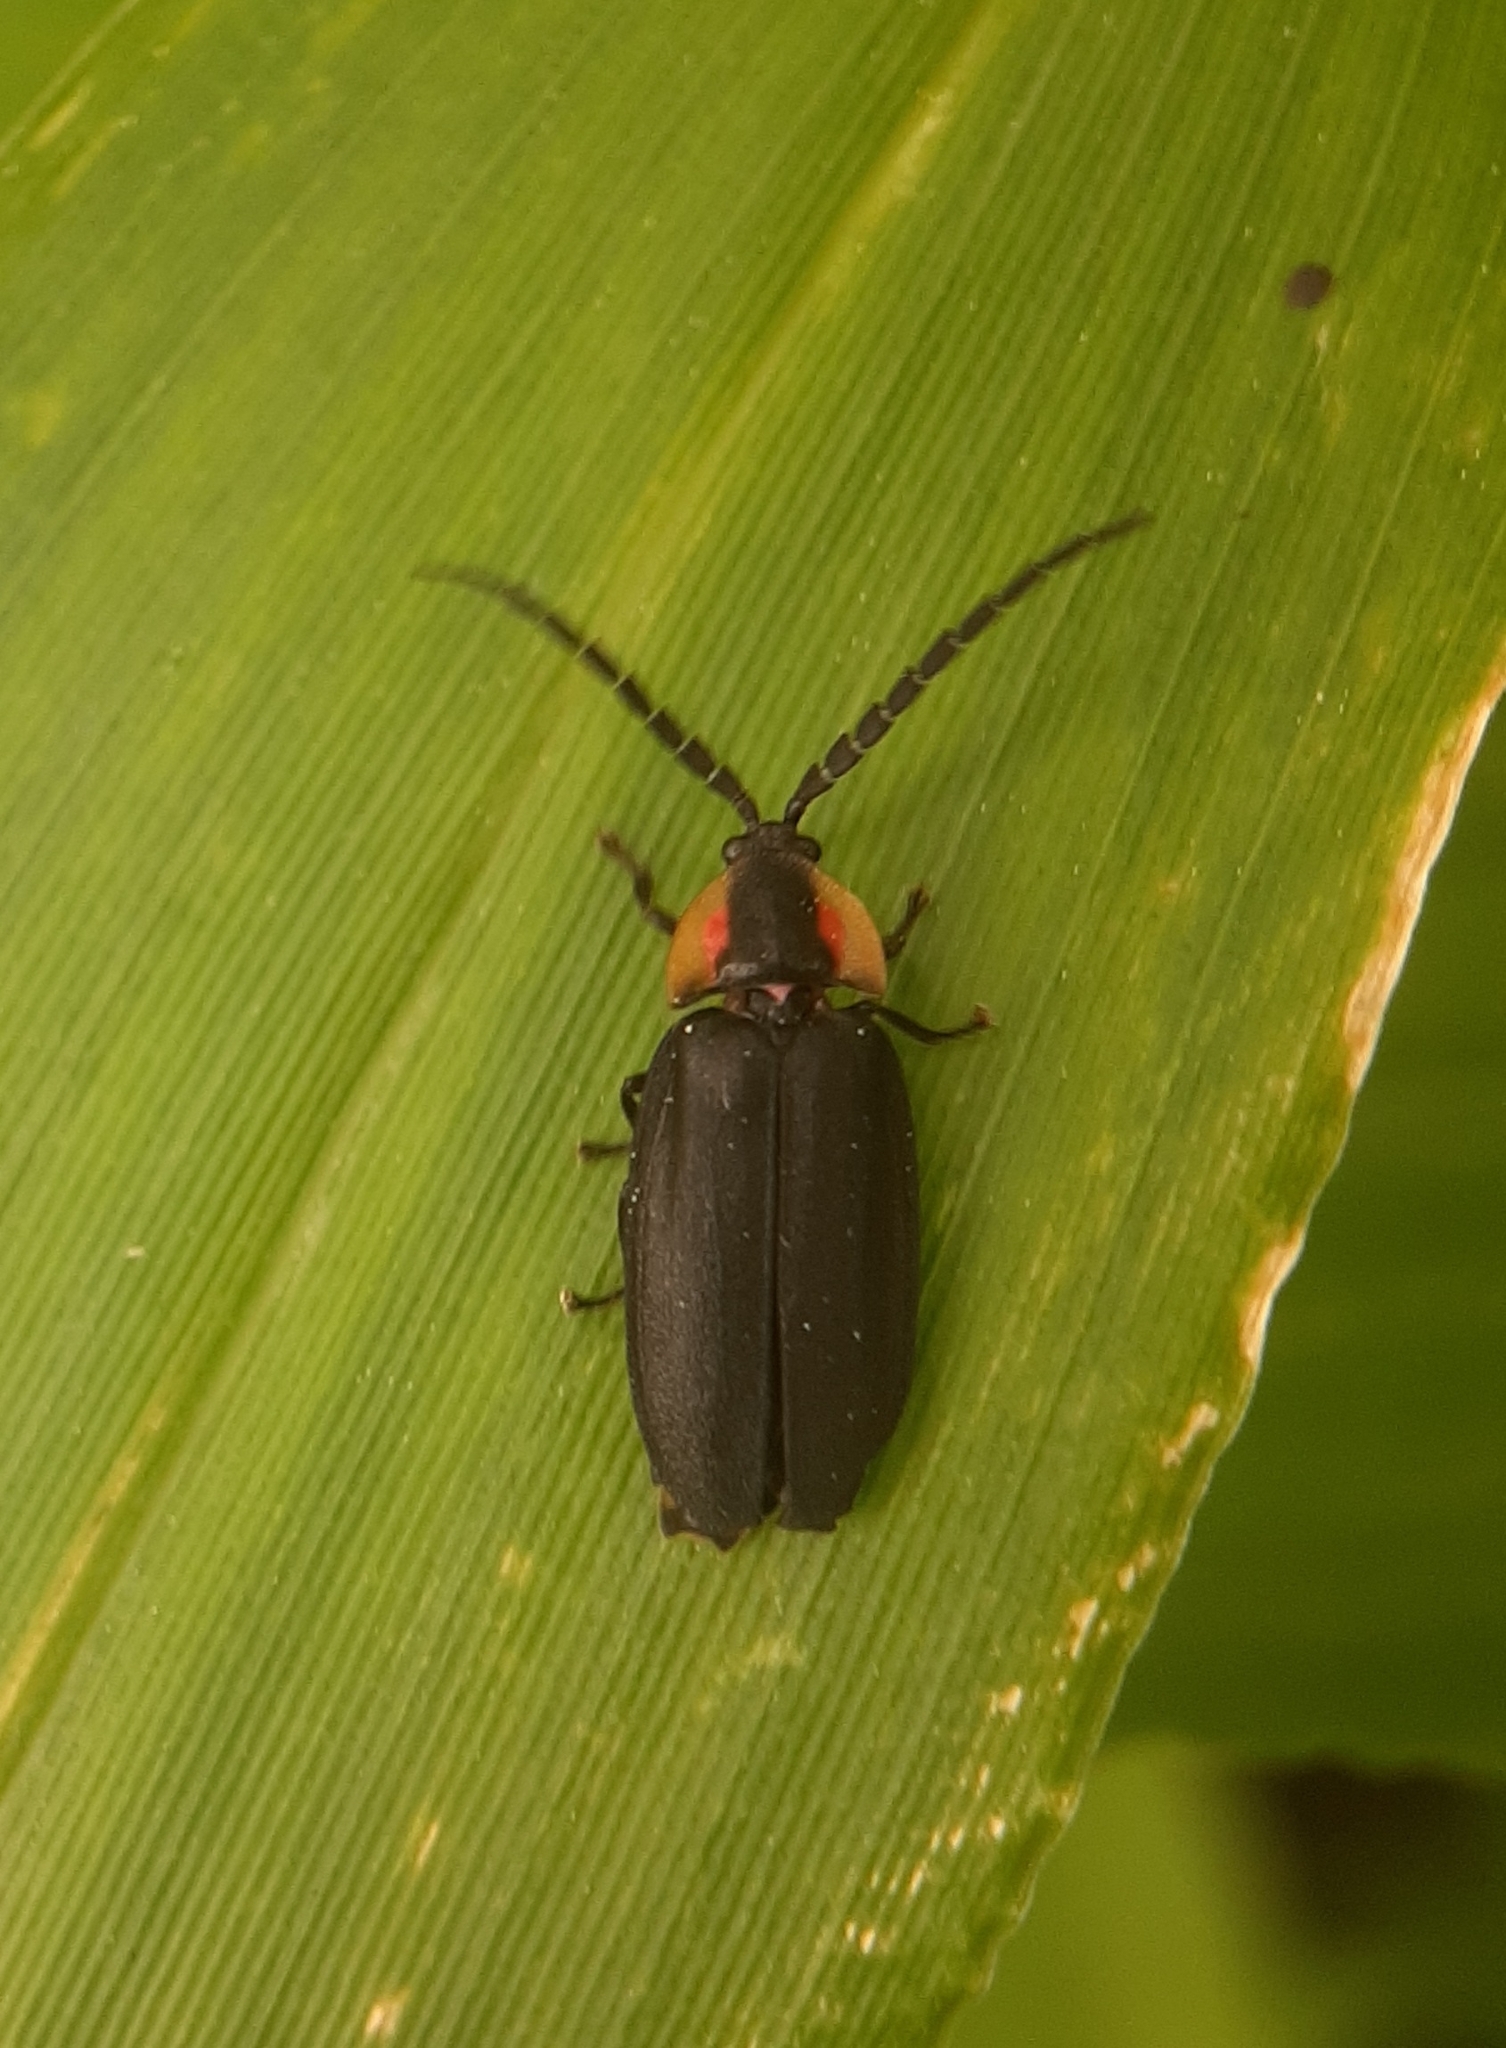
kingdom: Animalia
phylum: Arthropoda
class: Insecta
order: Coleoptera
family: Lampyridae
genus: Lucidota
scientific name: Lucidota atra
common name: Black firefly
